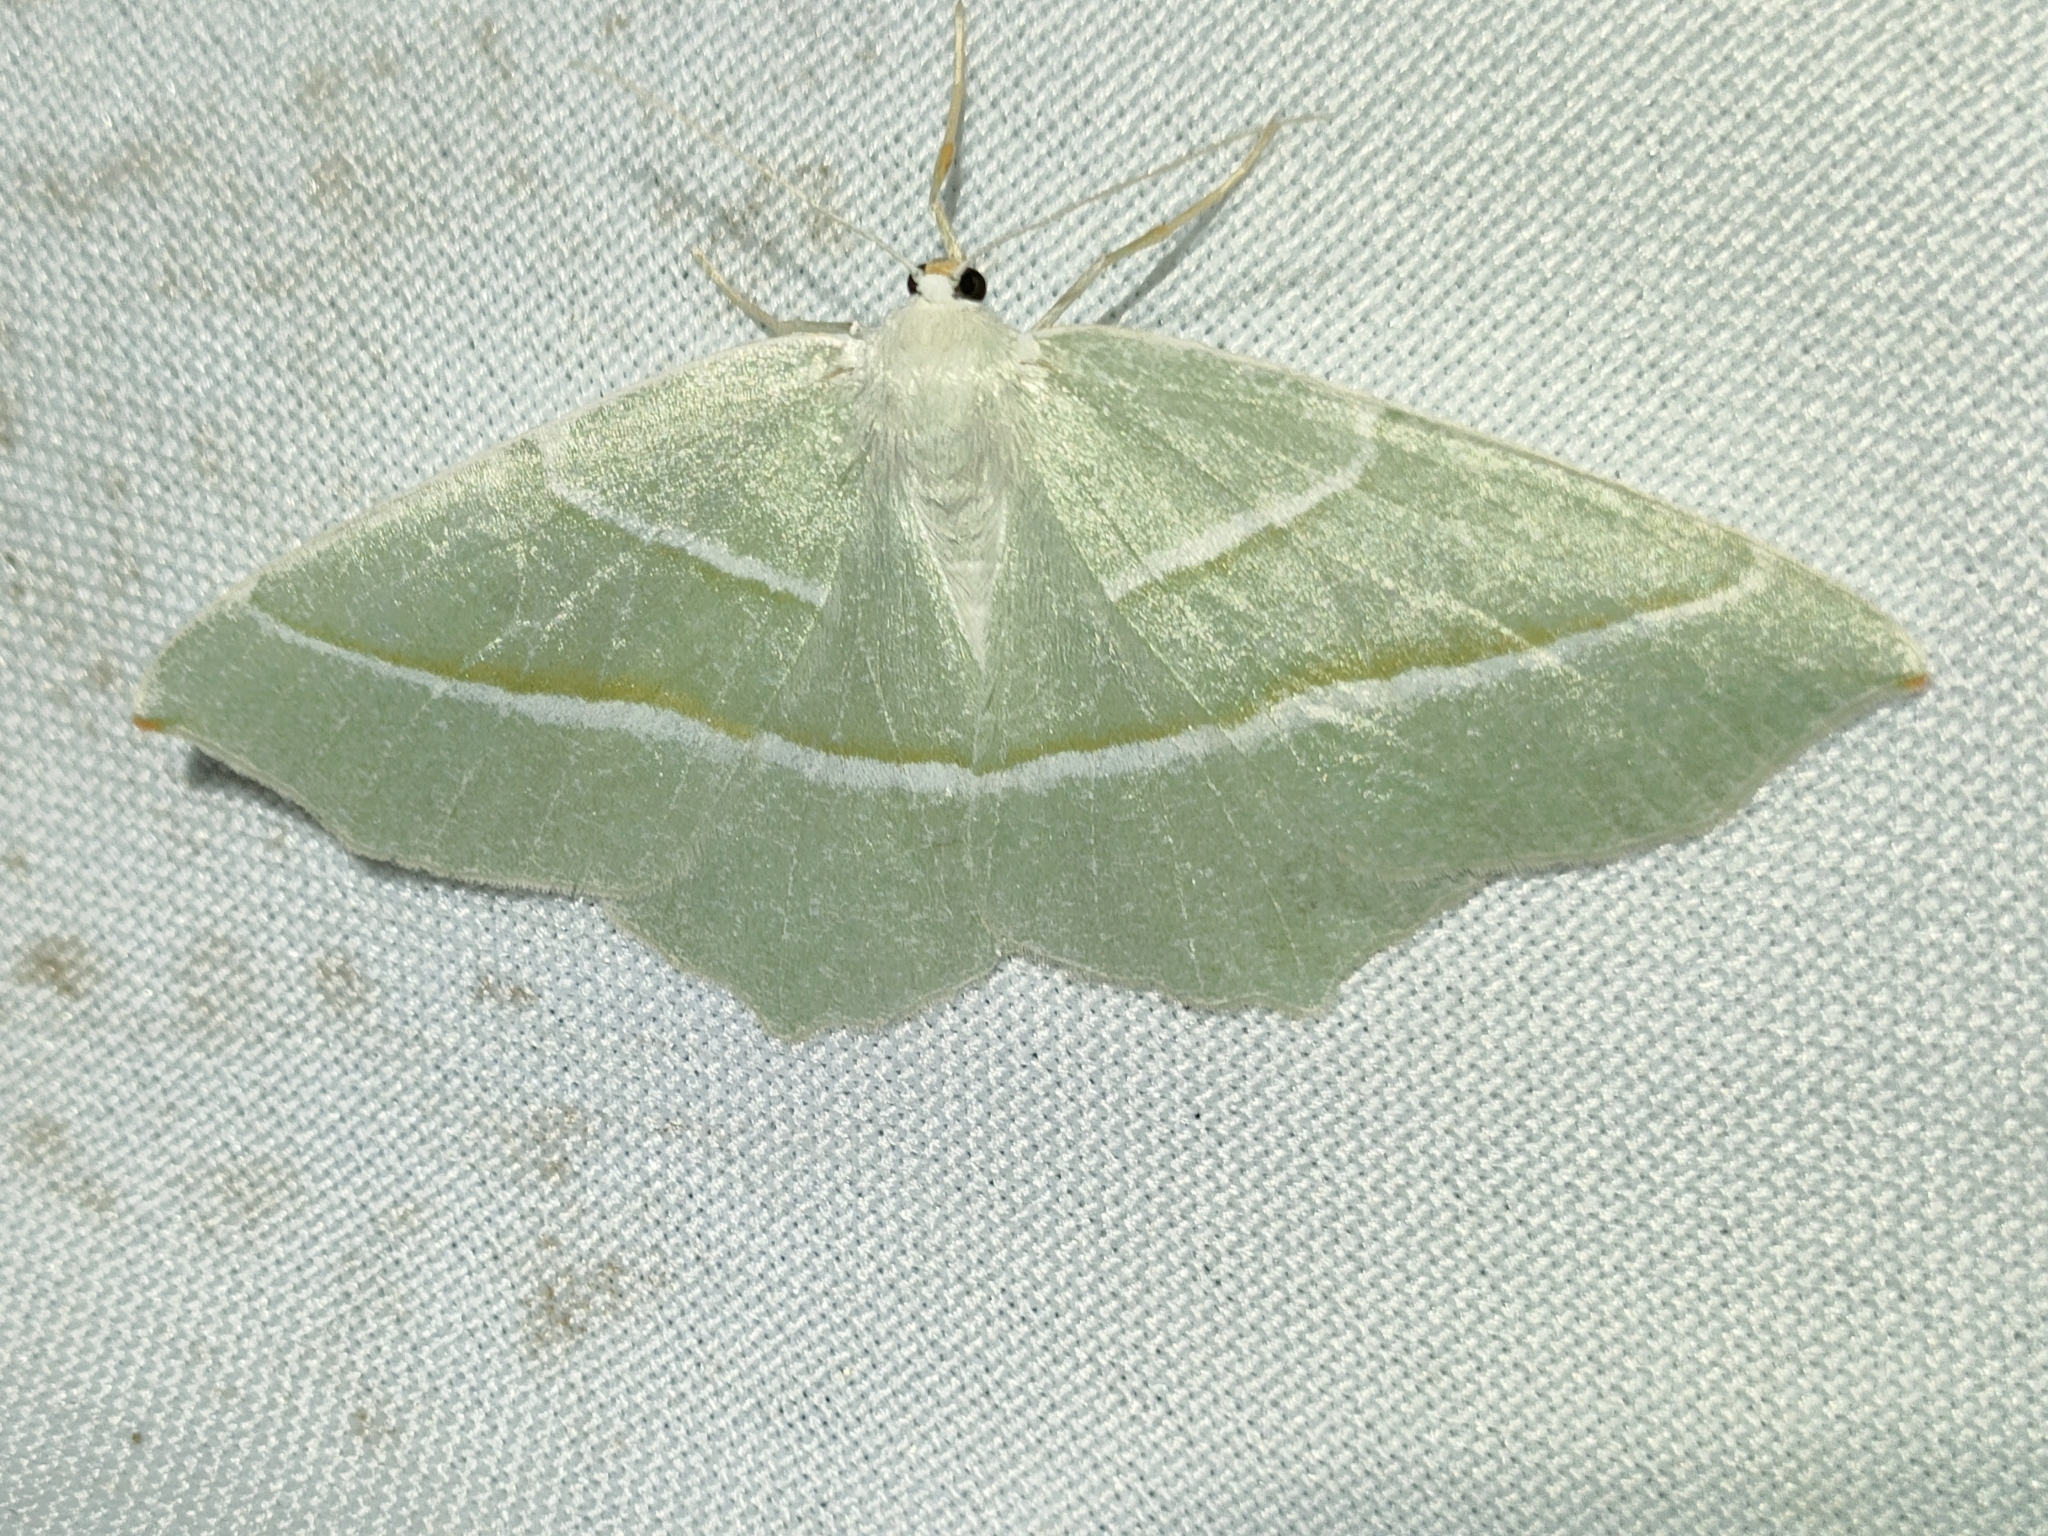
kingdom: Animalia
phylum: Arthropoda
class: Insecta
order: Lepidoptera
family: Geometridae
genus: Campaea
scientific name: Campaea margaritaria
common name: Light emerald
